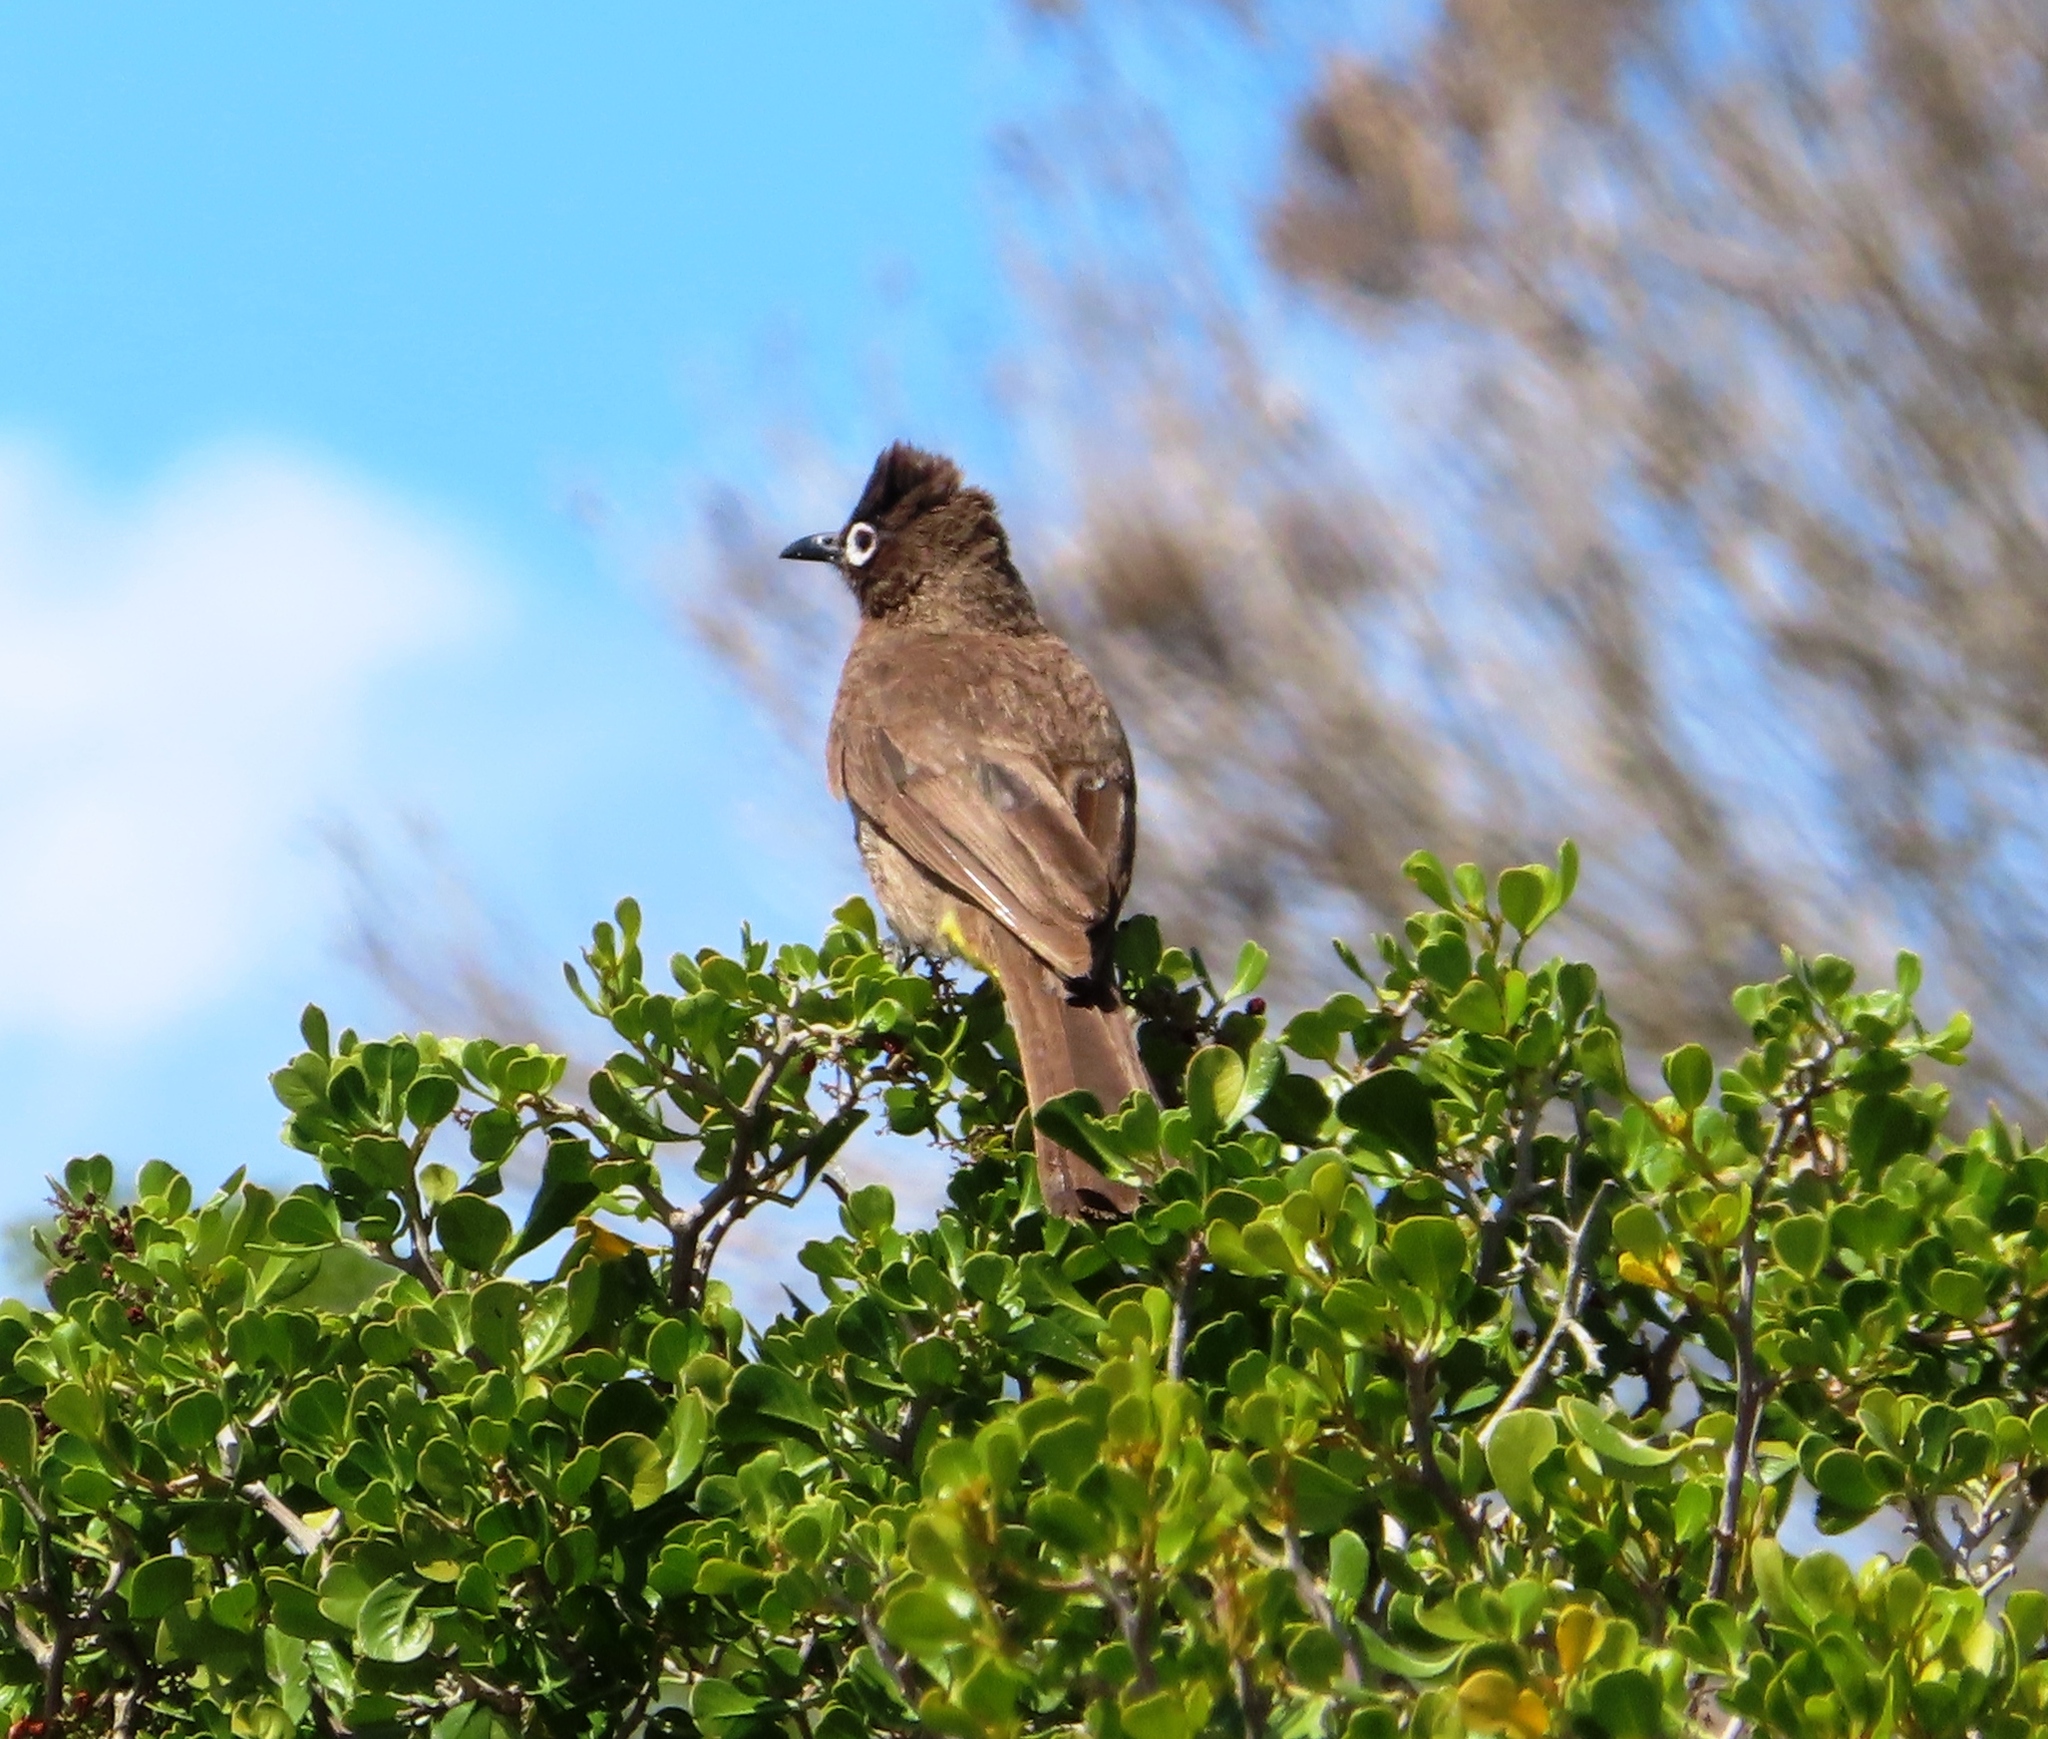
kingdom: Animalia
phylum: Chordata
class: Aves
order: Passeriformes
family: Pycnonotidae
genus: Pycnonotus
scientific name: Pycnonotus capensis
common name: Cape bulbul
